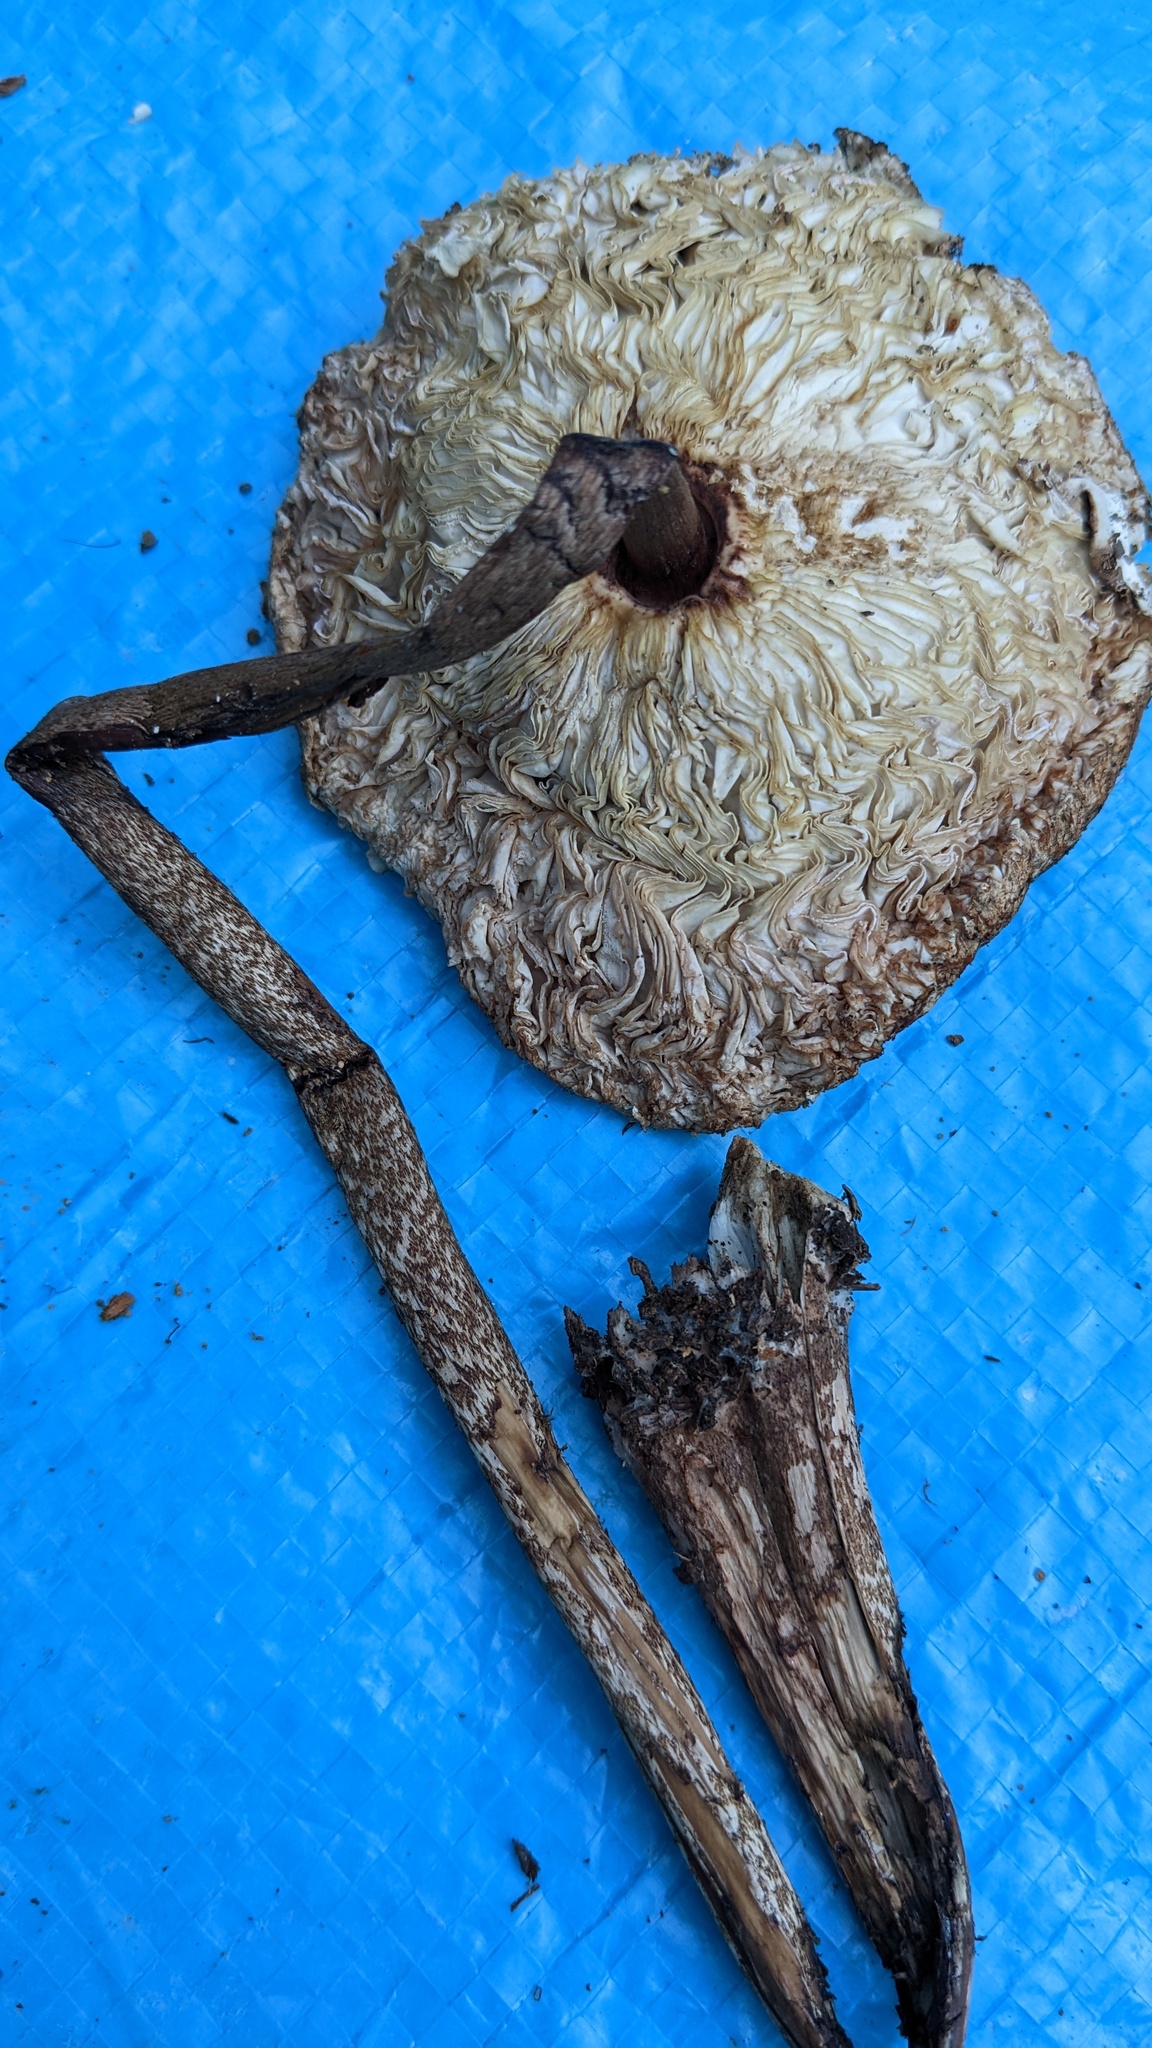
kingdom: Fungi
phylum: Basidiomycota
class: Agaricomycetes
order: Agaricales
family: Agaricaceae
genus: Macrolepiota
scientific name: Macrolepiota procera
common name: Parasol
